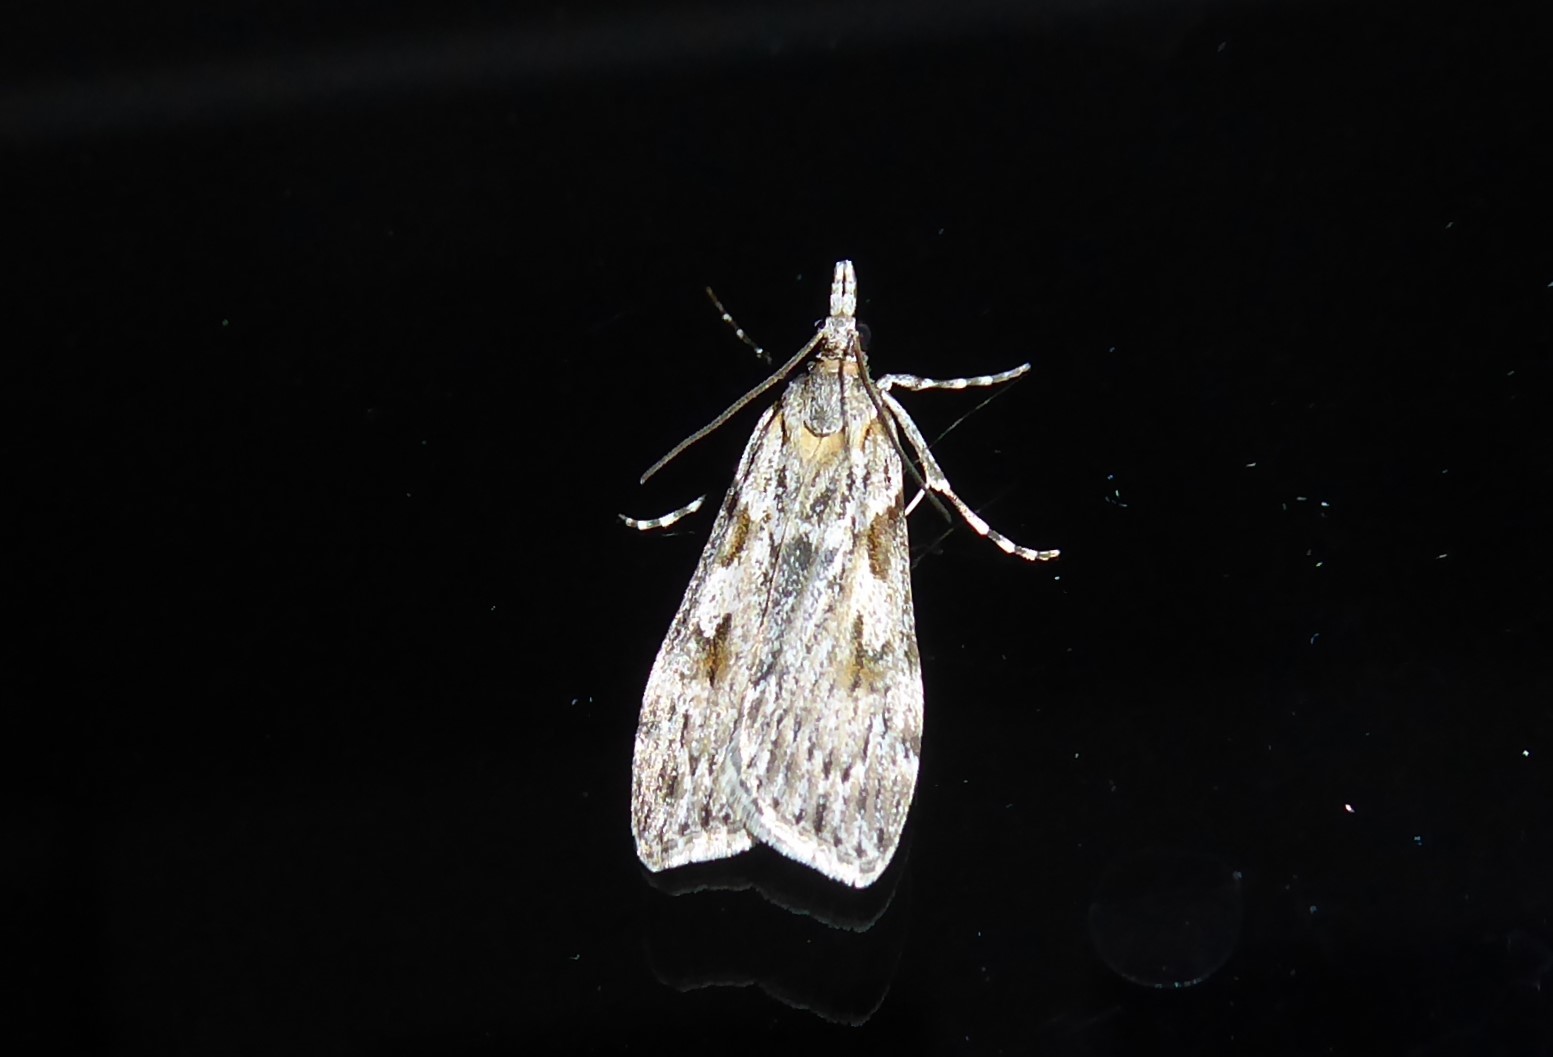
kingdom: Animalia
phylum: Arthropoda
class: Insecta
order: Lepidoptera
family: Crambidae
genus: Scoparia
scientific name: Scoparia halopis
